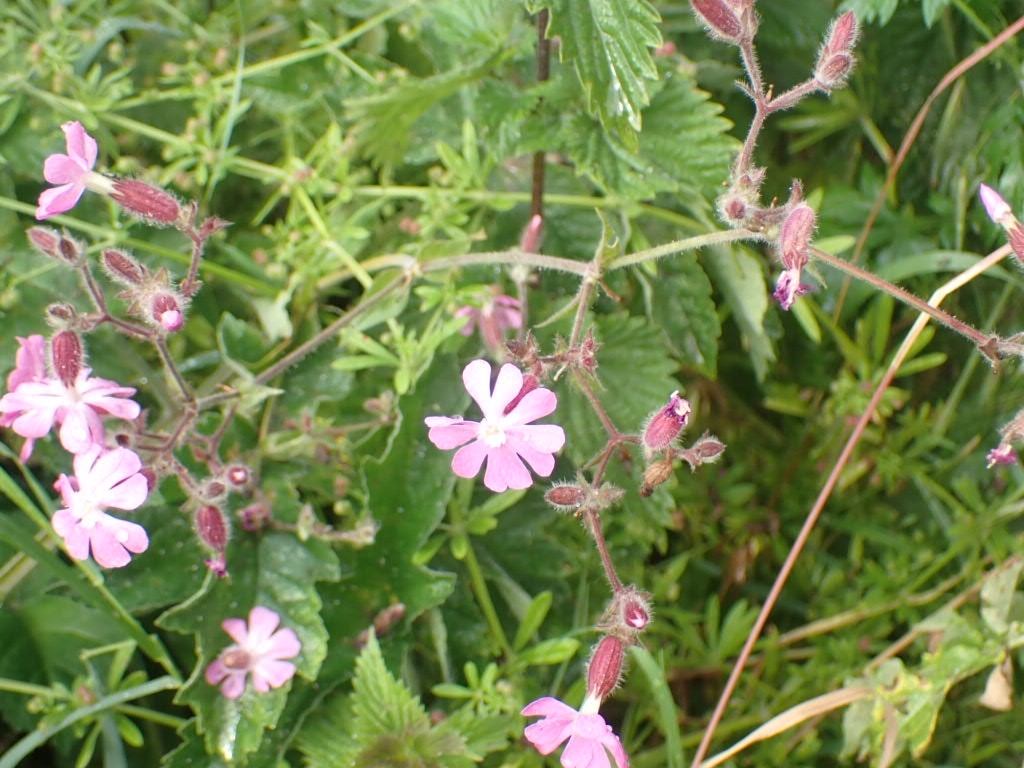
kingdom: Plantae
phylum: Tracheophyta
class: Magnoliopsida
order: Caryophyllales
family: Caryophyllaceae
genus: Silene
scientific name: Silene dioica
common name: Red campion
